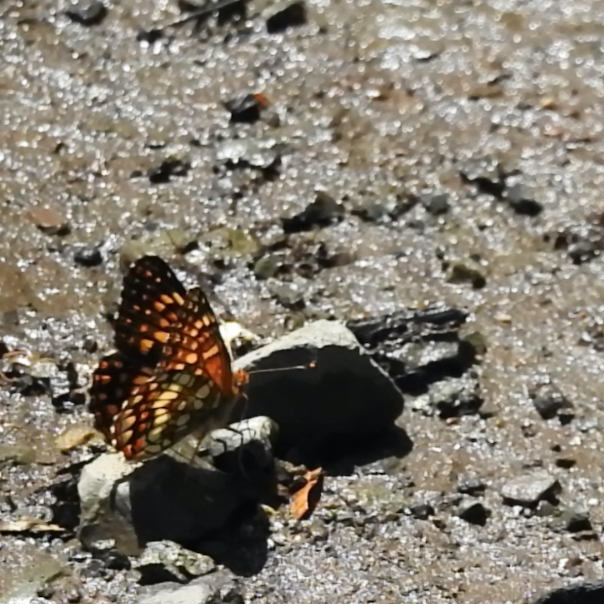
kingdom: Animalia
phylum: Arthropoda
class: Insecta
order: Lepidoptera
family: Nymphalidae
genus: Chlosyne
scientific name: Chlosyne palla
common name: Northern checkerspot
